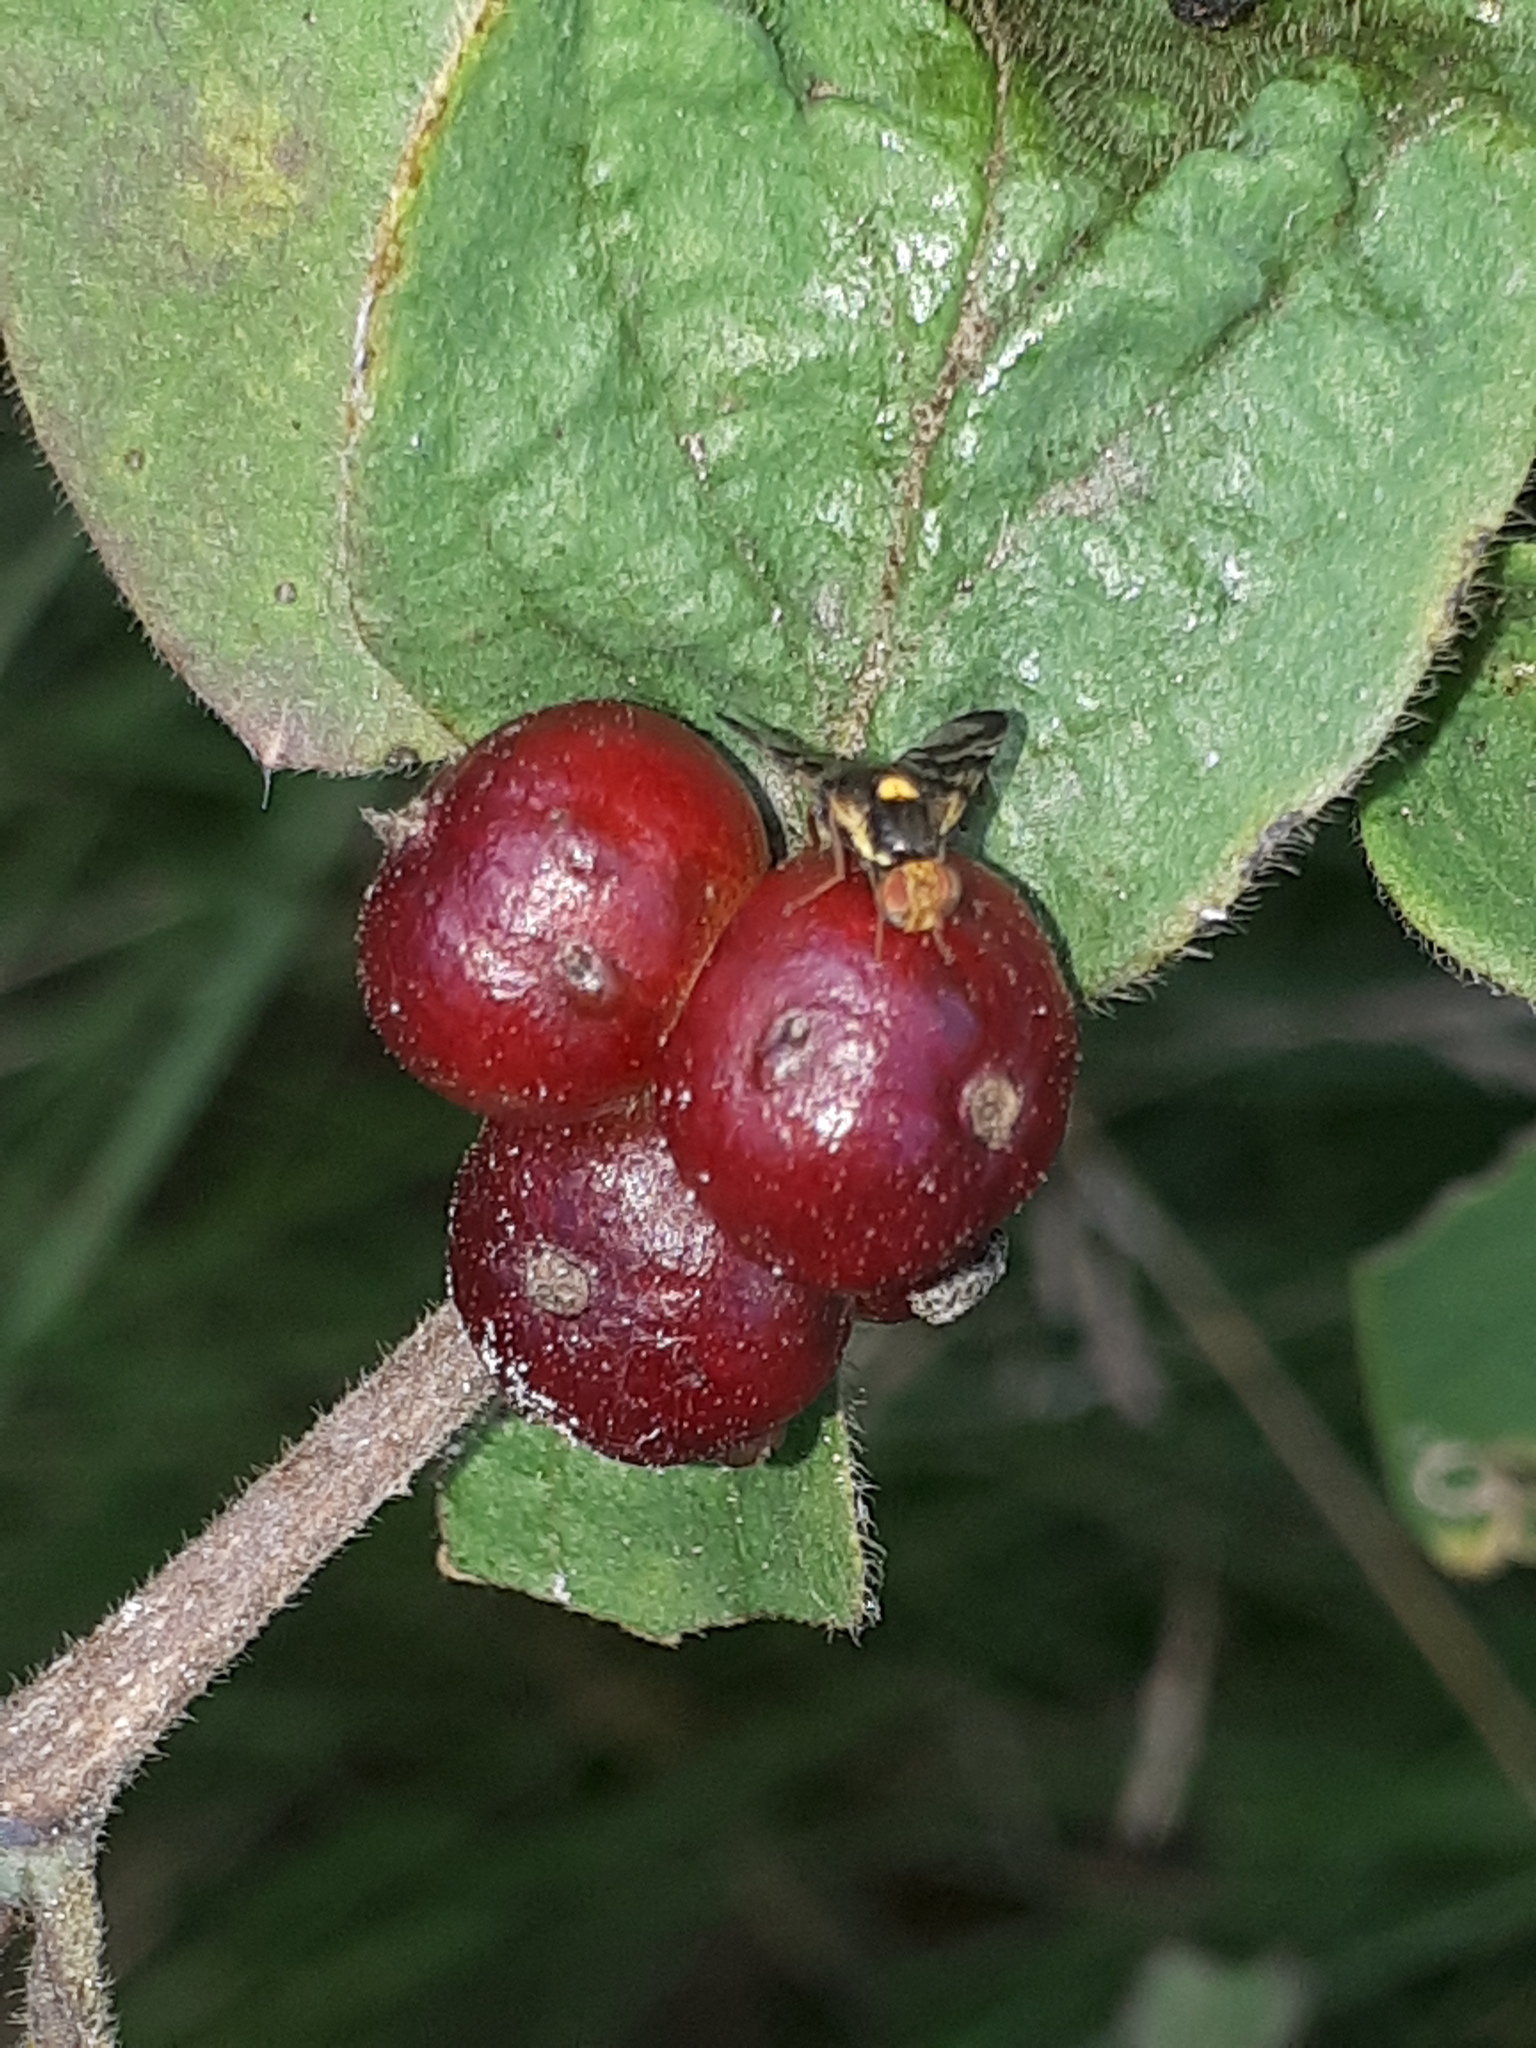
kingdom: Animalia
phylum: Arthropoda
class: Insecta
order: Diptera
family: Tephritidae
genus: Rhagoletis
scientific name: Rhagoletis cerasi
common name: European cherry fruit fly
